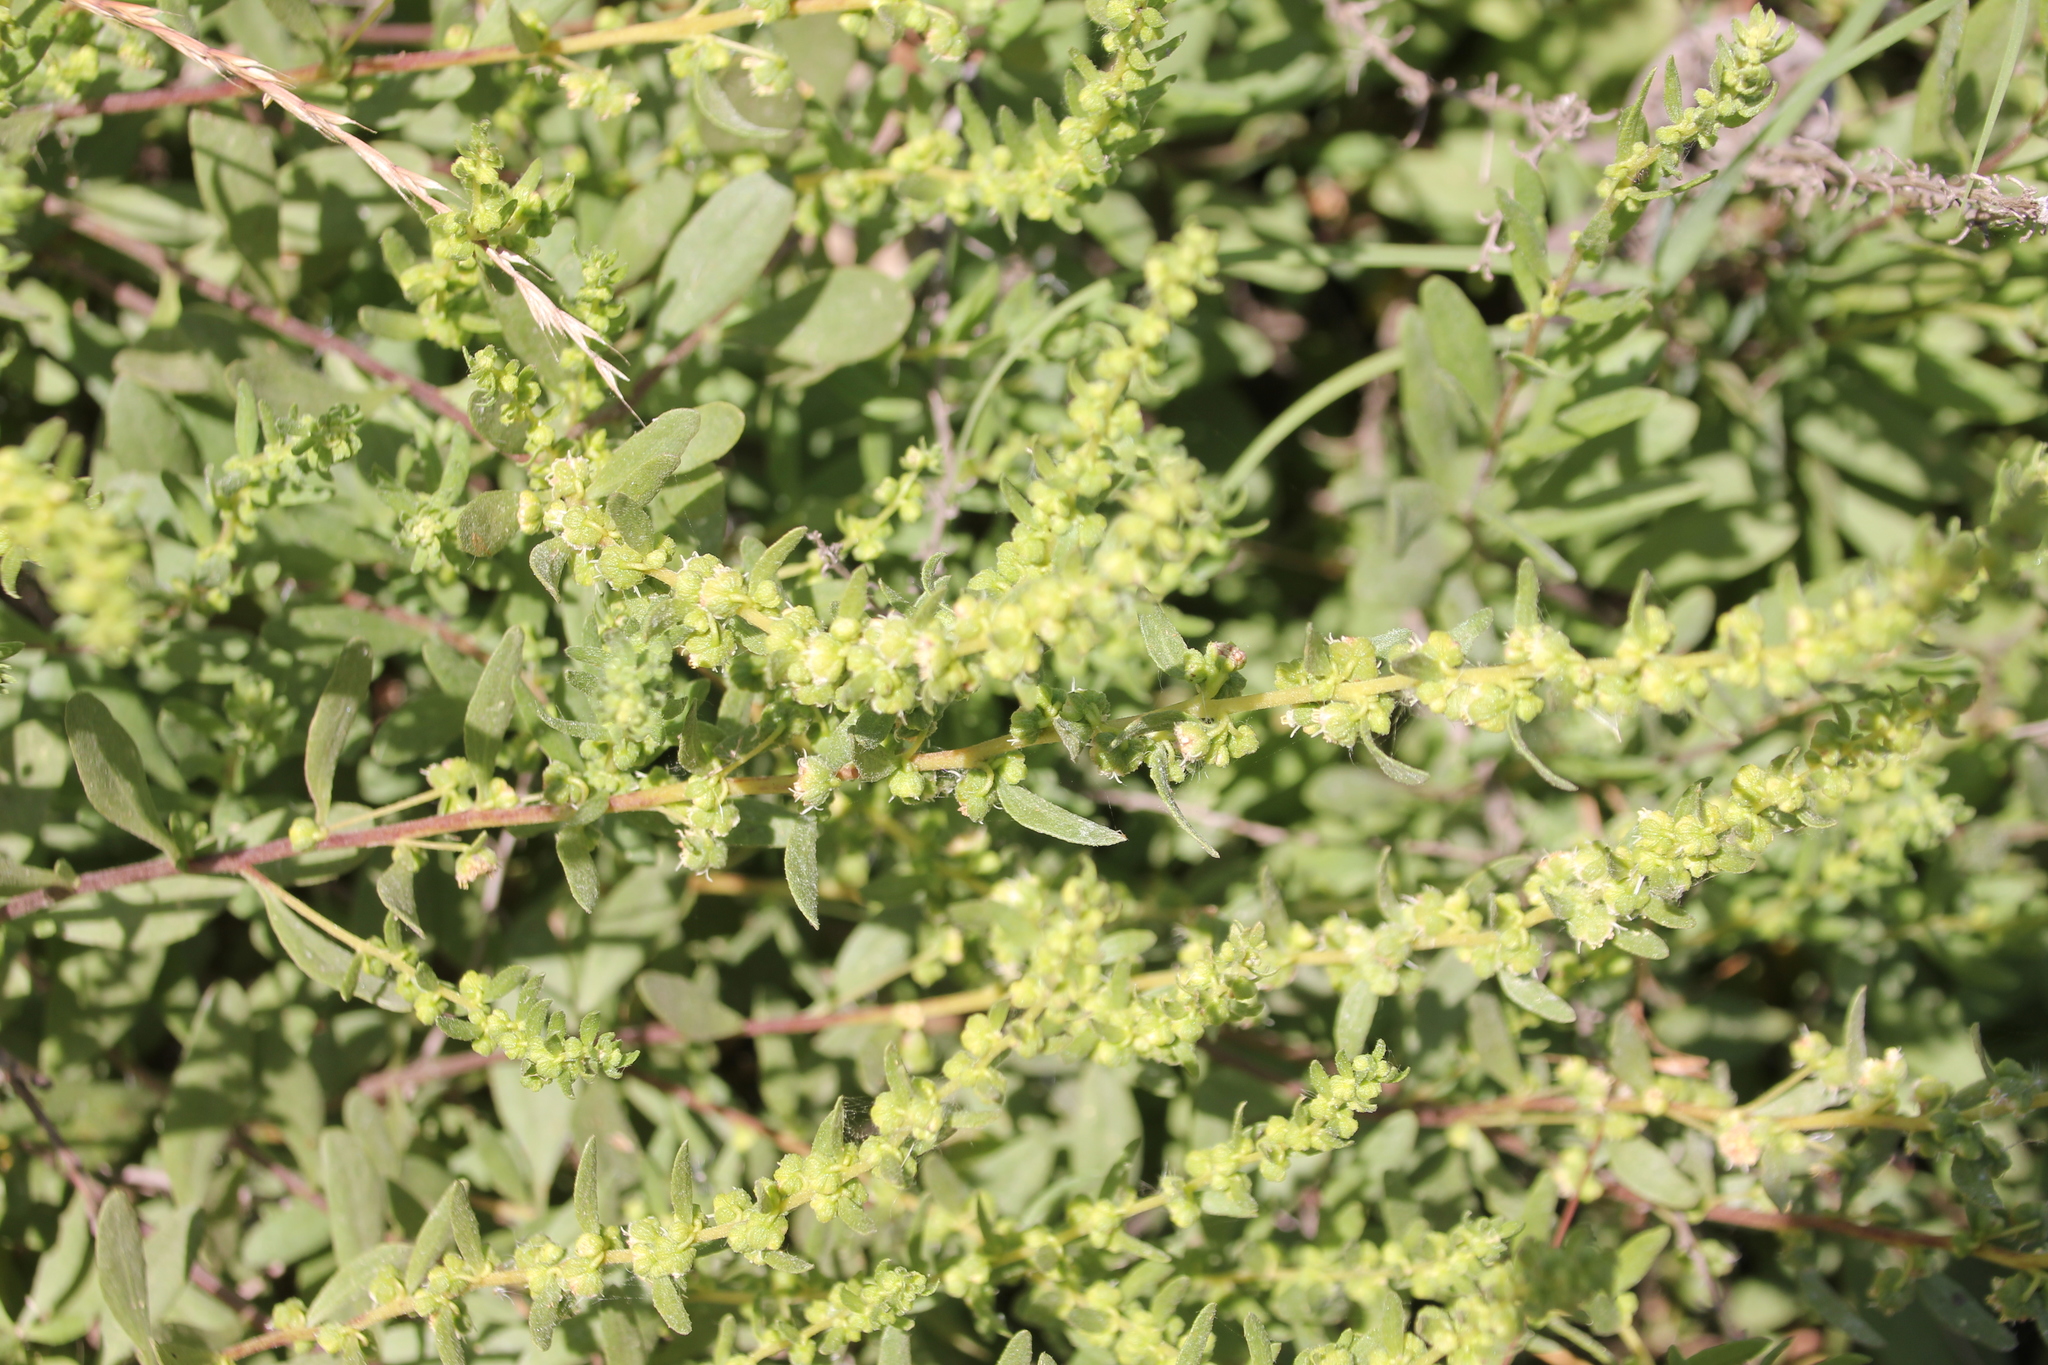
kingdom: Plantae
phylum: Tracheophyta
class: Magnoliopsida
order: Asterales
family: Asteraceae
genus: Iva
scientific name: Iva hayesiana
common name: San diego marsh-elder
